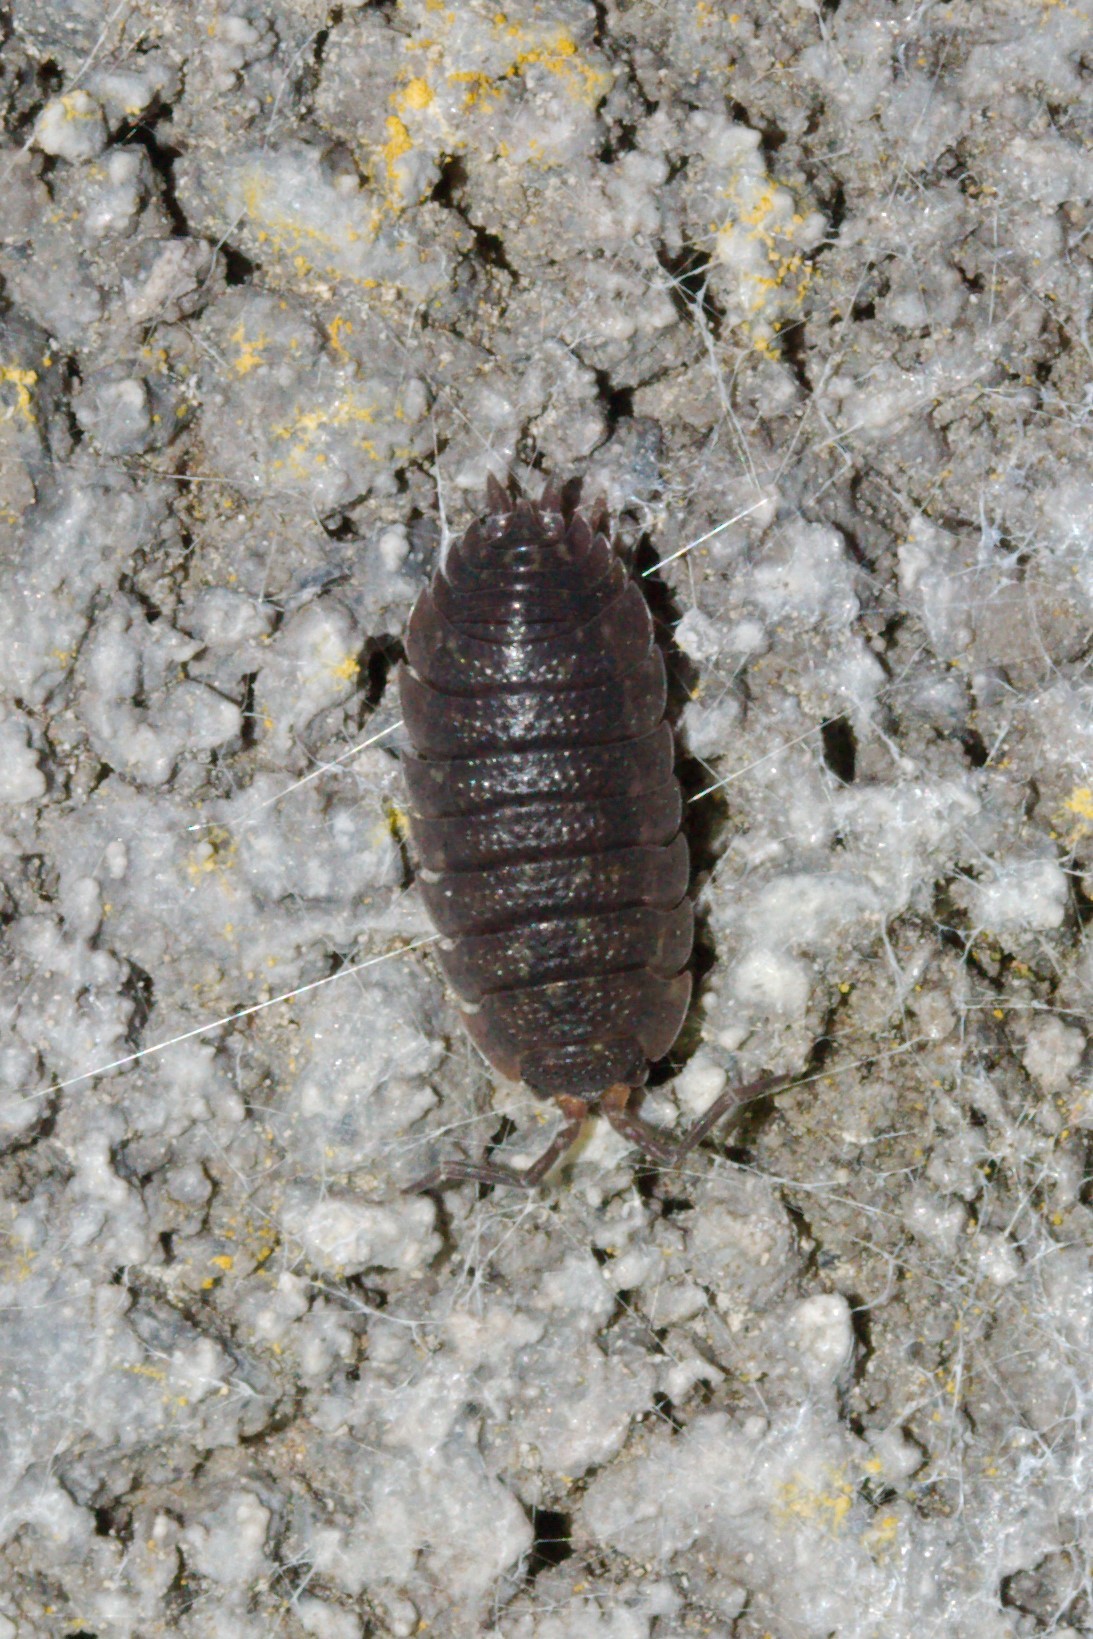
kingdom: Animalia
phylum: Arthropoda
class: Malacostraca
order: Isopoda
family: Porcellionidae
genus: Porcellio
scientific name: Porcellio scaber
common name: Common rough woodlouse
